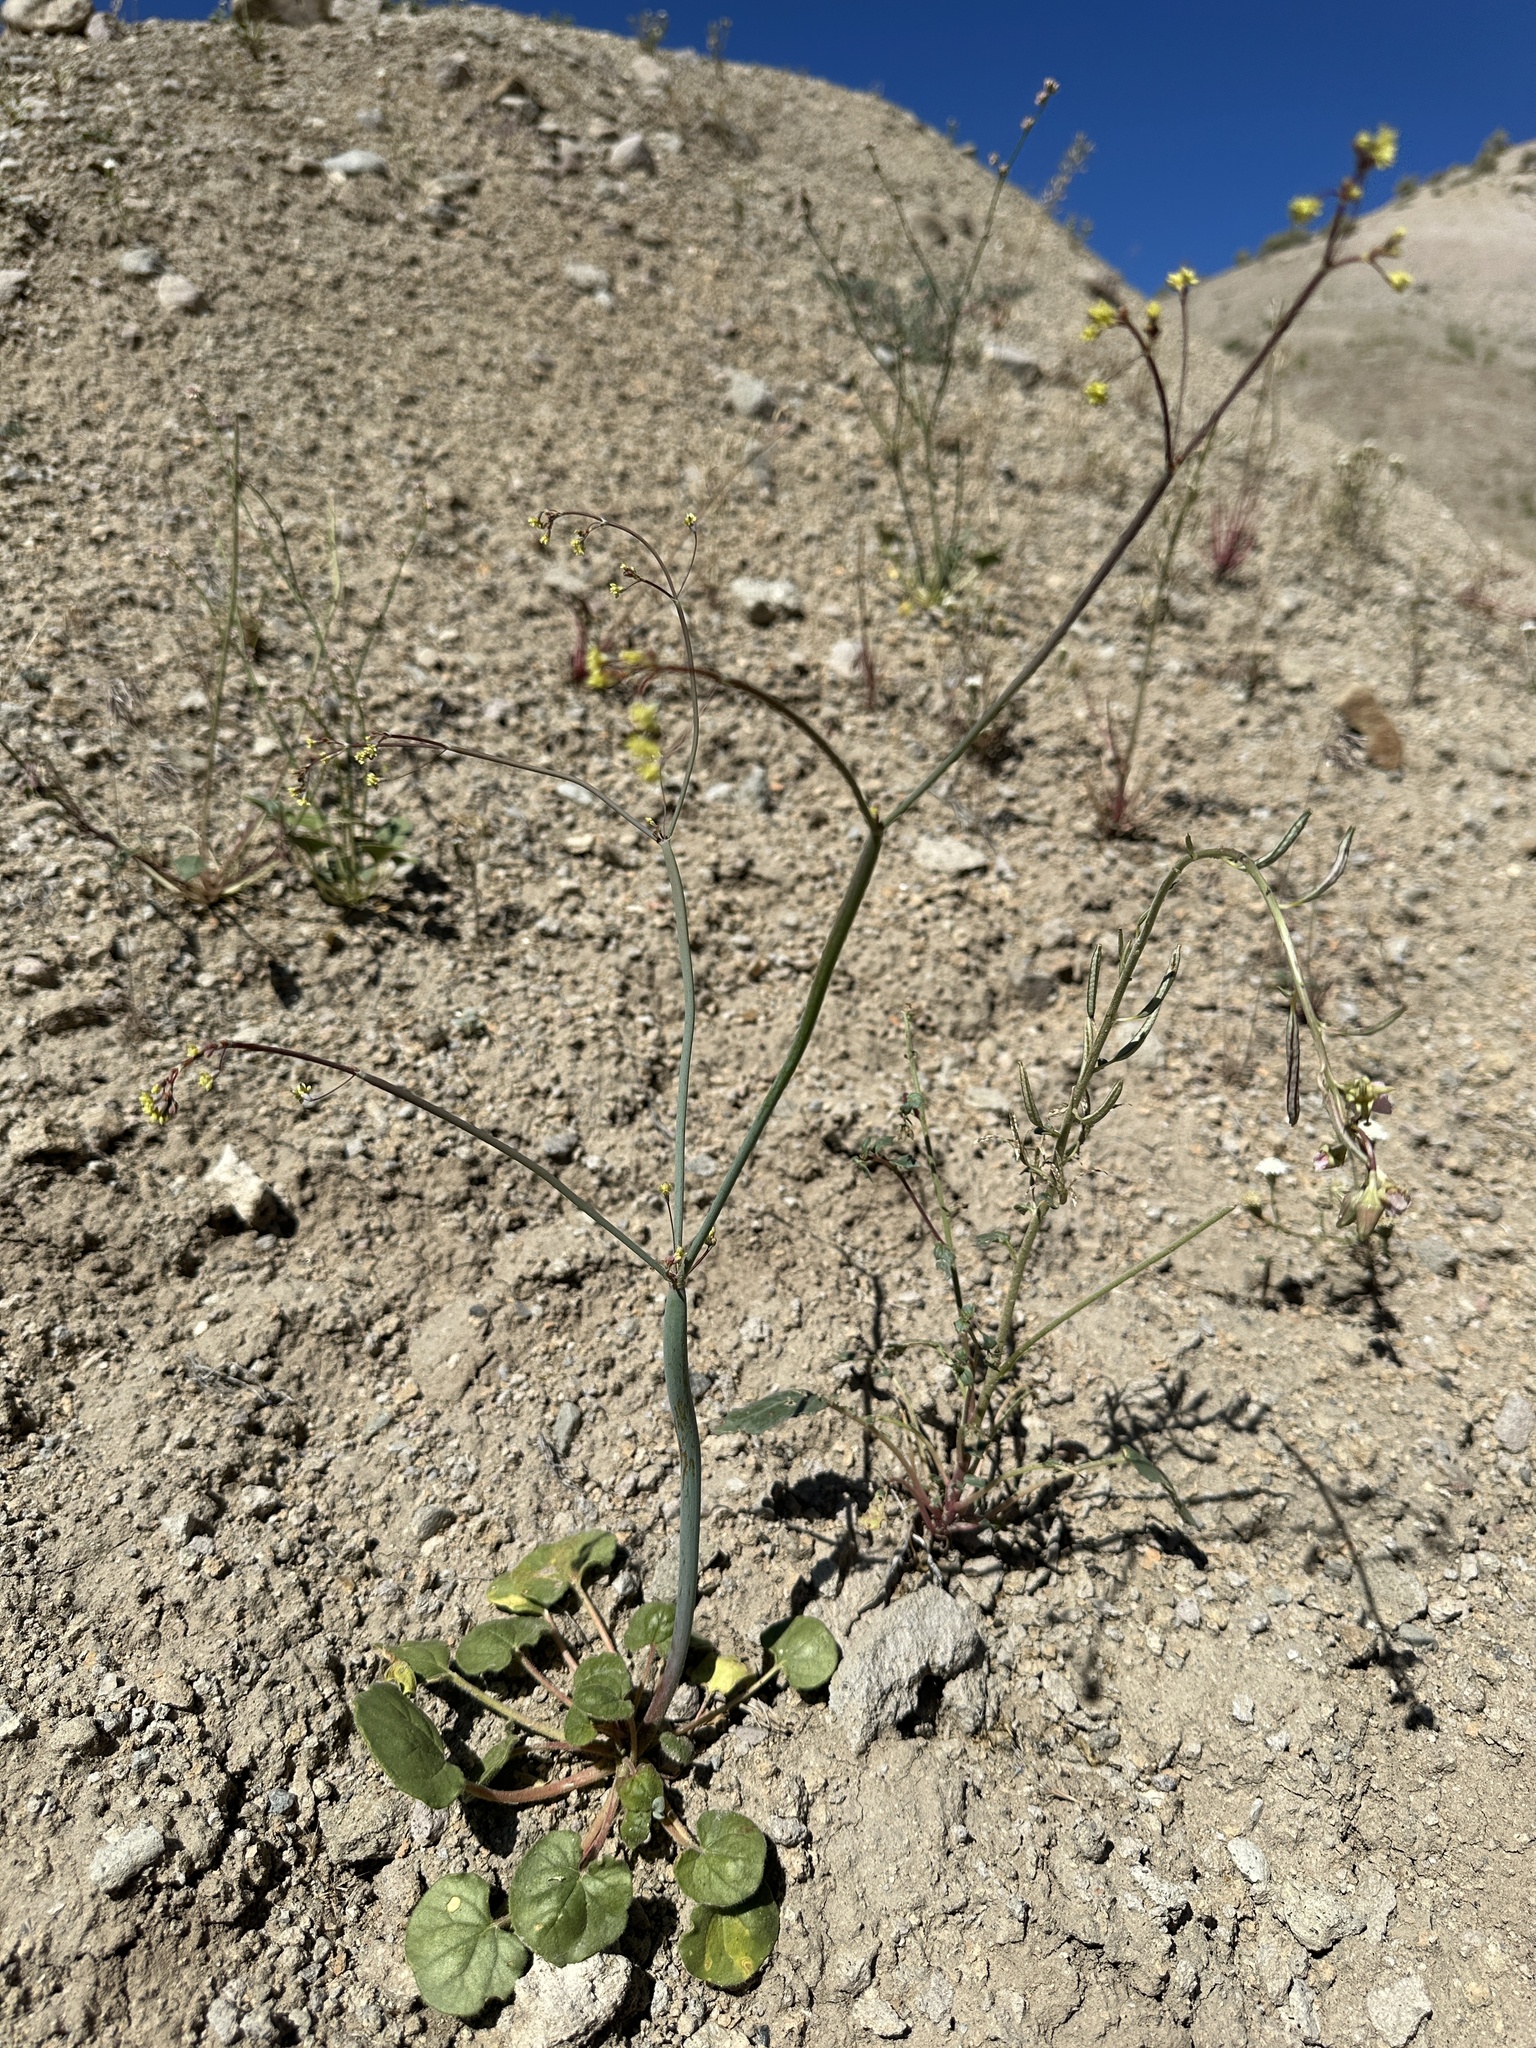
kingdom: Plantae
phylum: Tracheophyta
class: Magnoliopsida
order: Caryophyllales
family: Polygonaceae
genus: Eriogonum
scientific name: Eriogonum rubricaule
